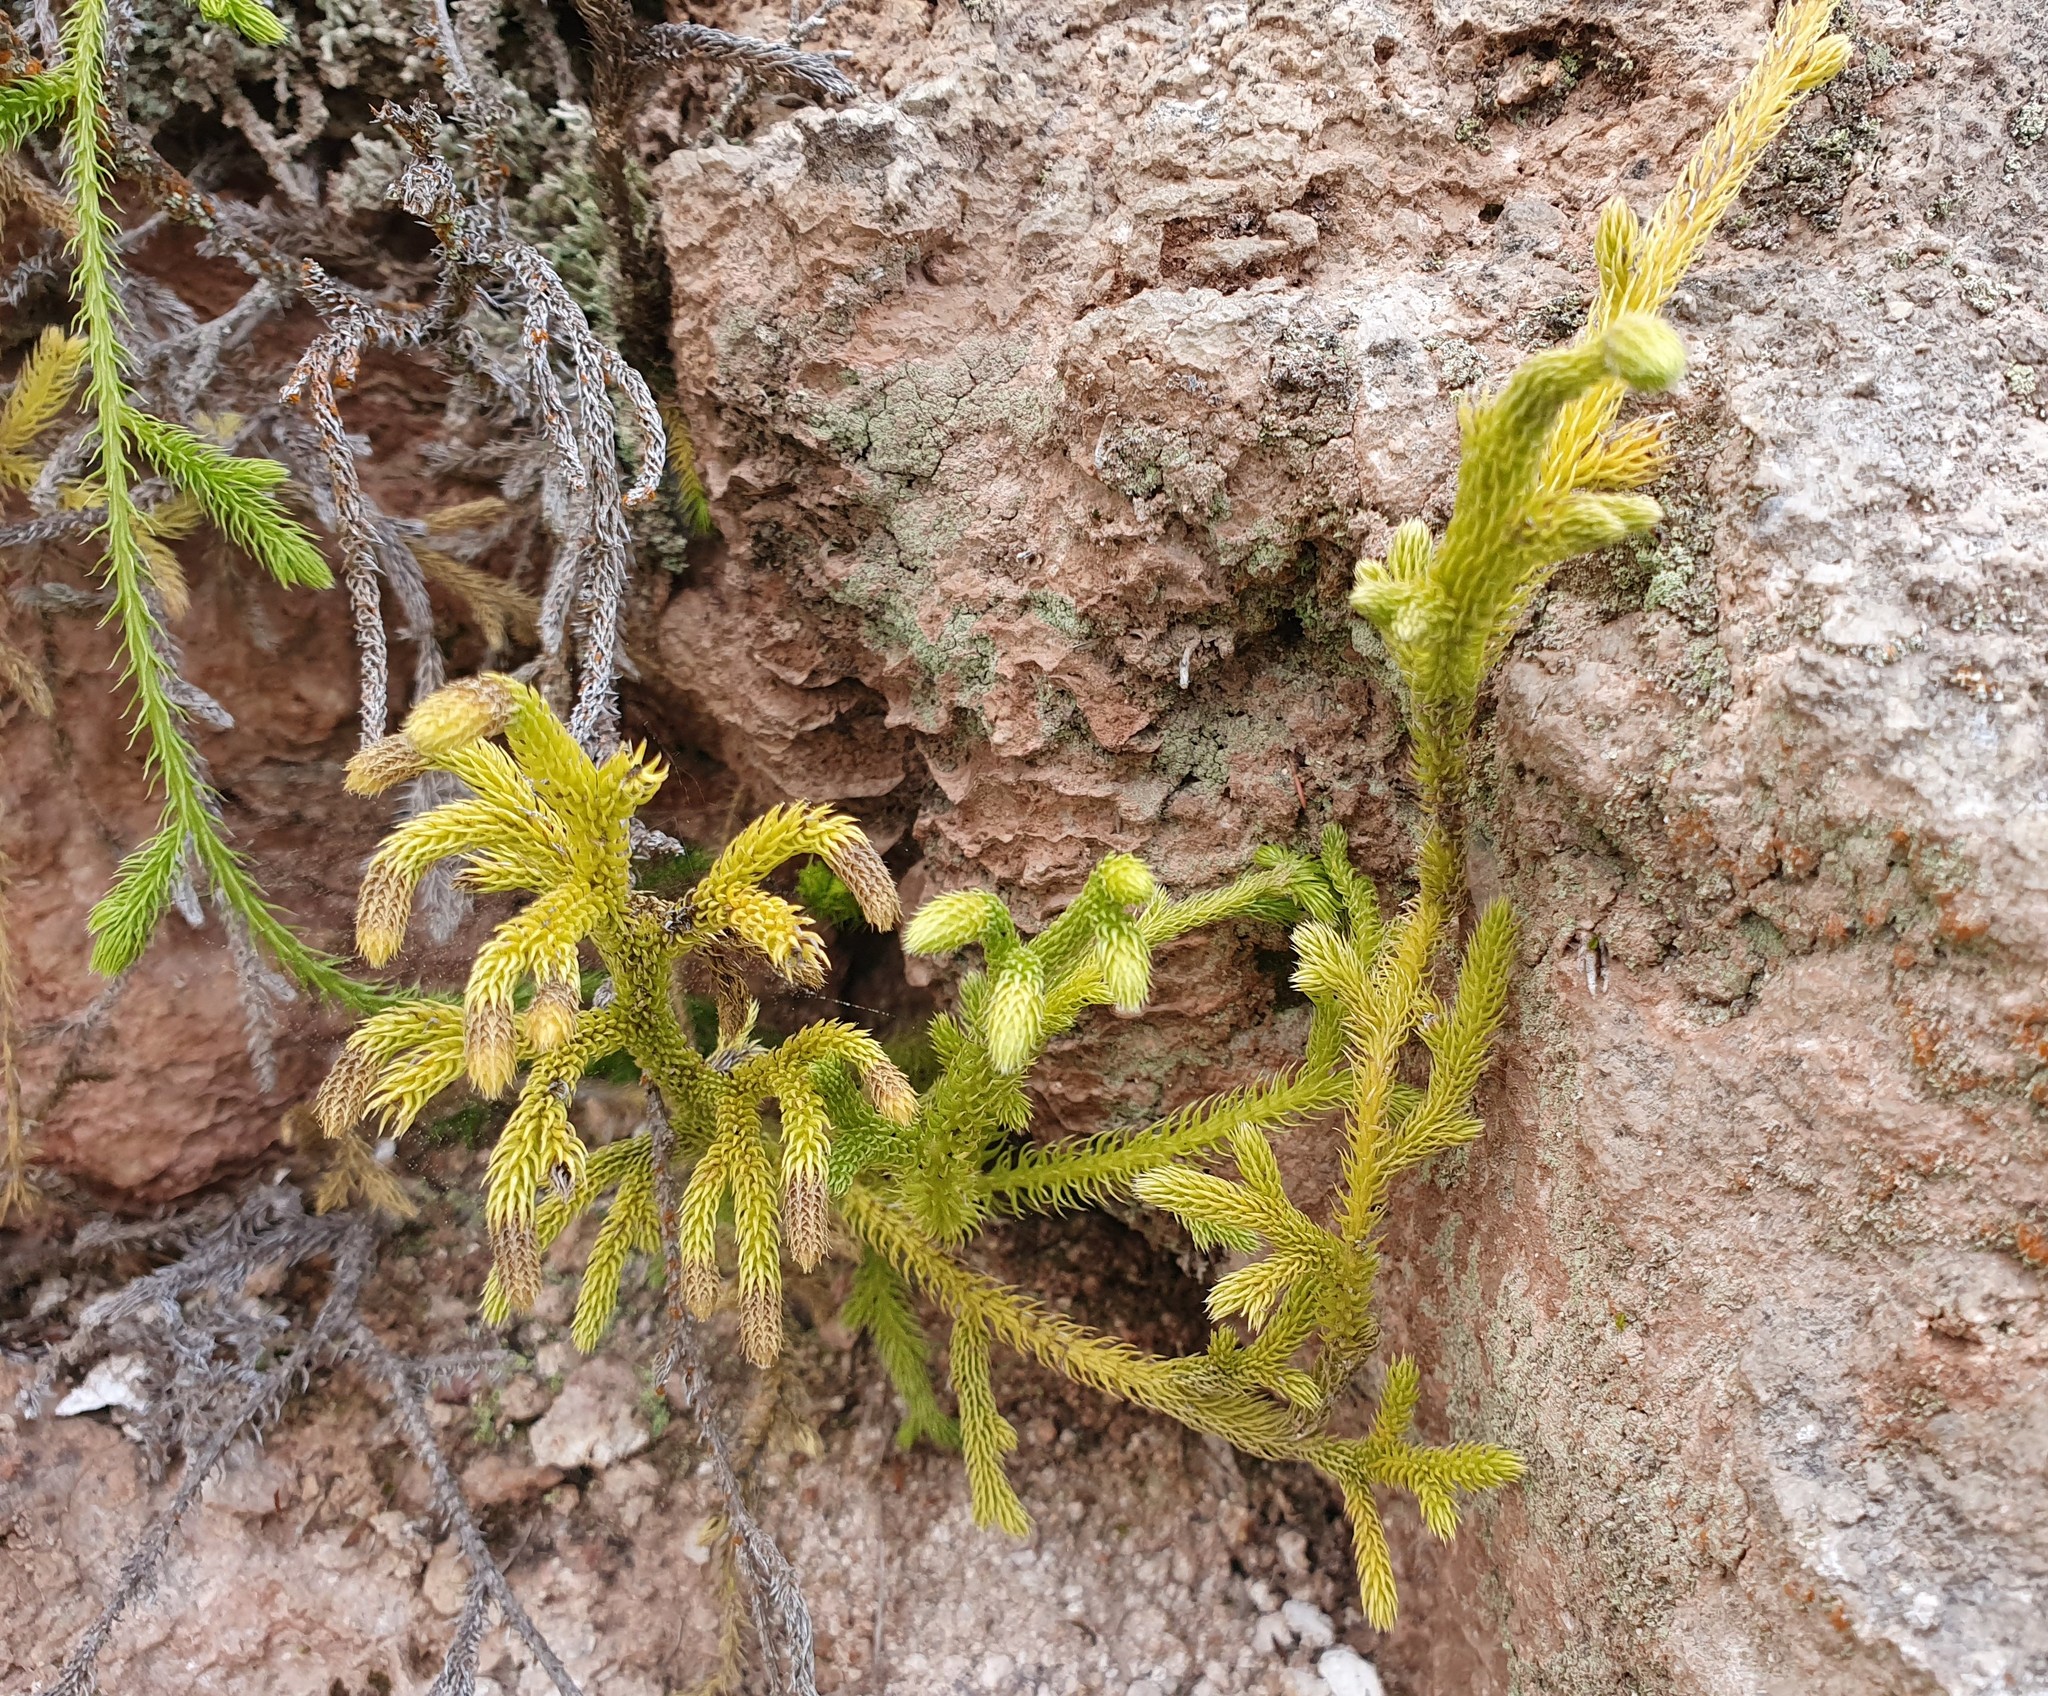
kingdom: Plantae
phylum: Tracheophyta
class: Lycopodiopsida
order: Lycopodiales
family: Lycopodiaceae
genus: Palhinhaea
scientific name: Palhinhaea cernua
